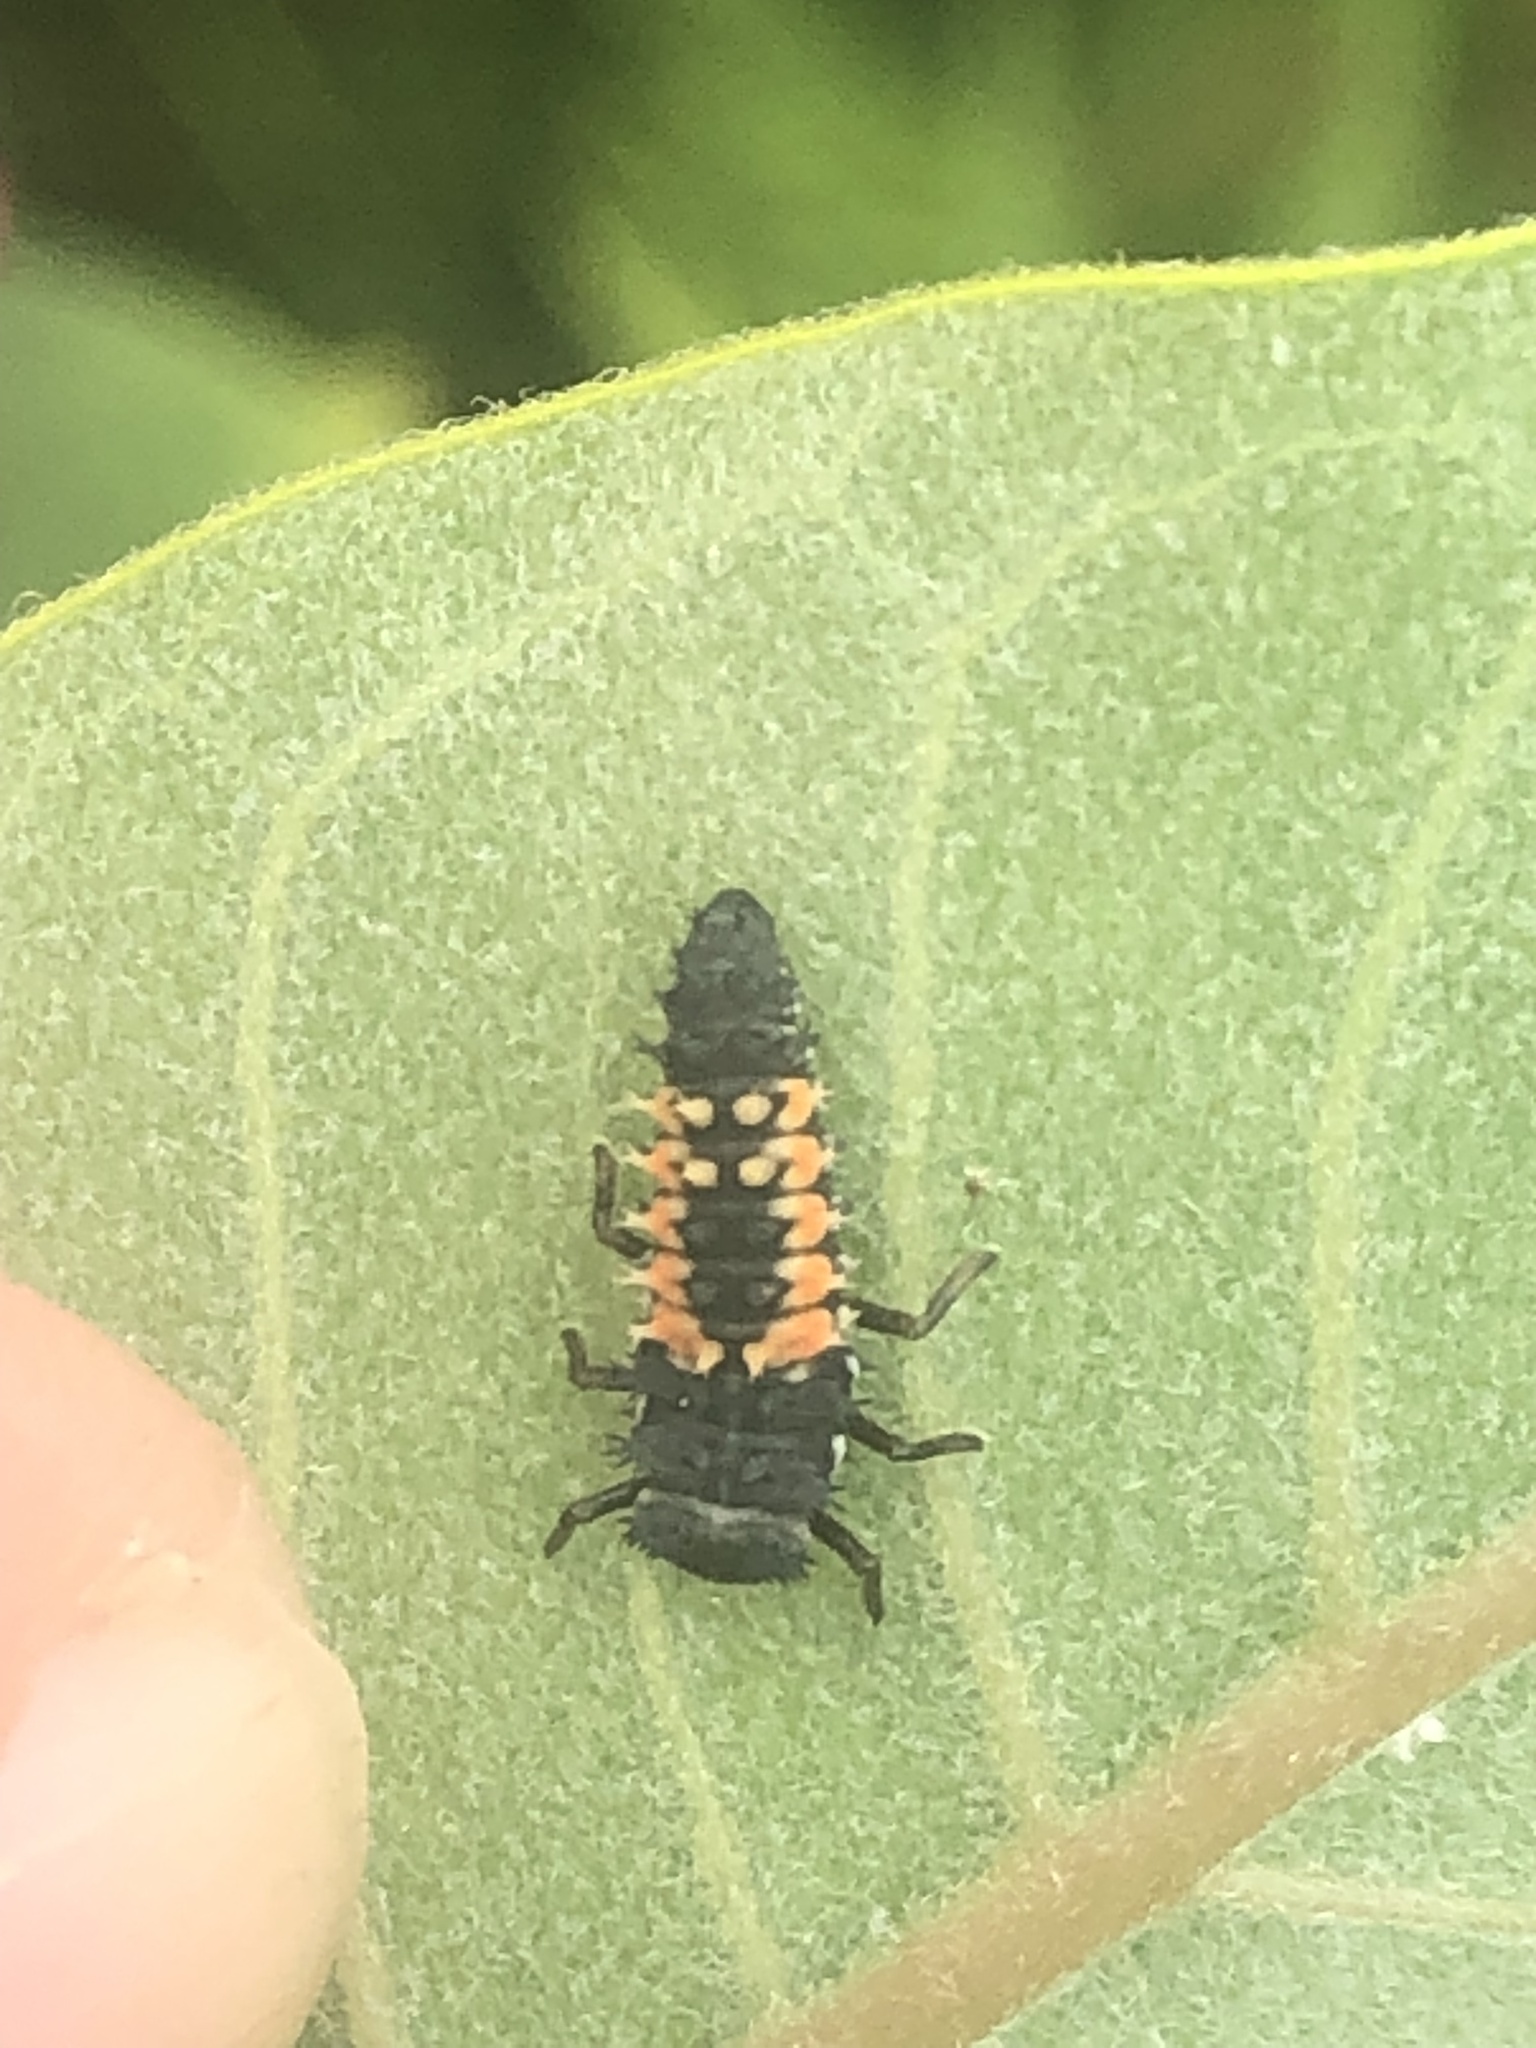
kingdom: Animalia
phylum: Arthropoda
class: Insecta
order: Coleoptera
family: Coccinellidae
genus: Harmonia
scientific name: Harmonia axyridis
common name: Harlequin ladybird
